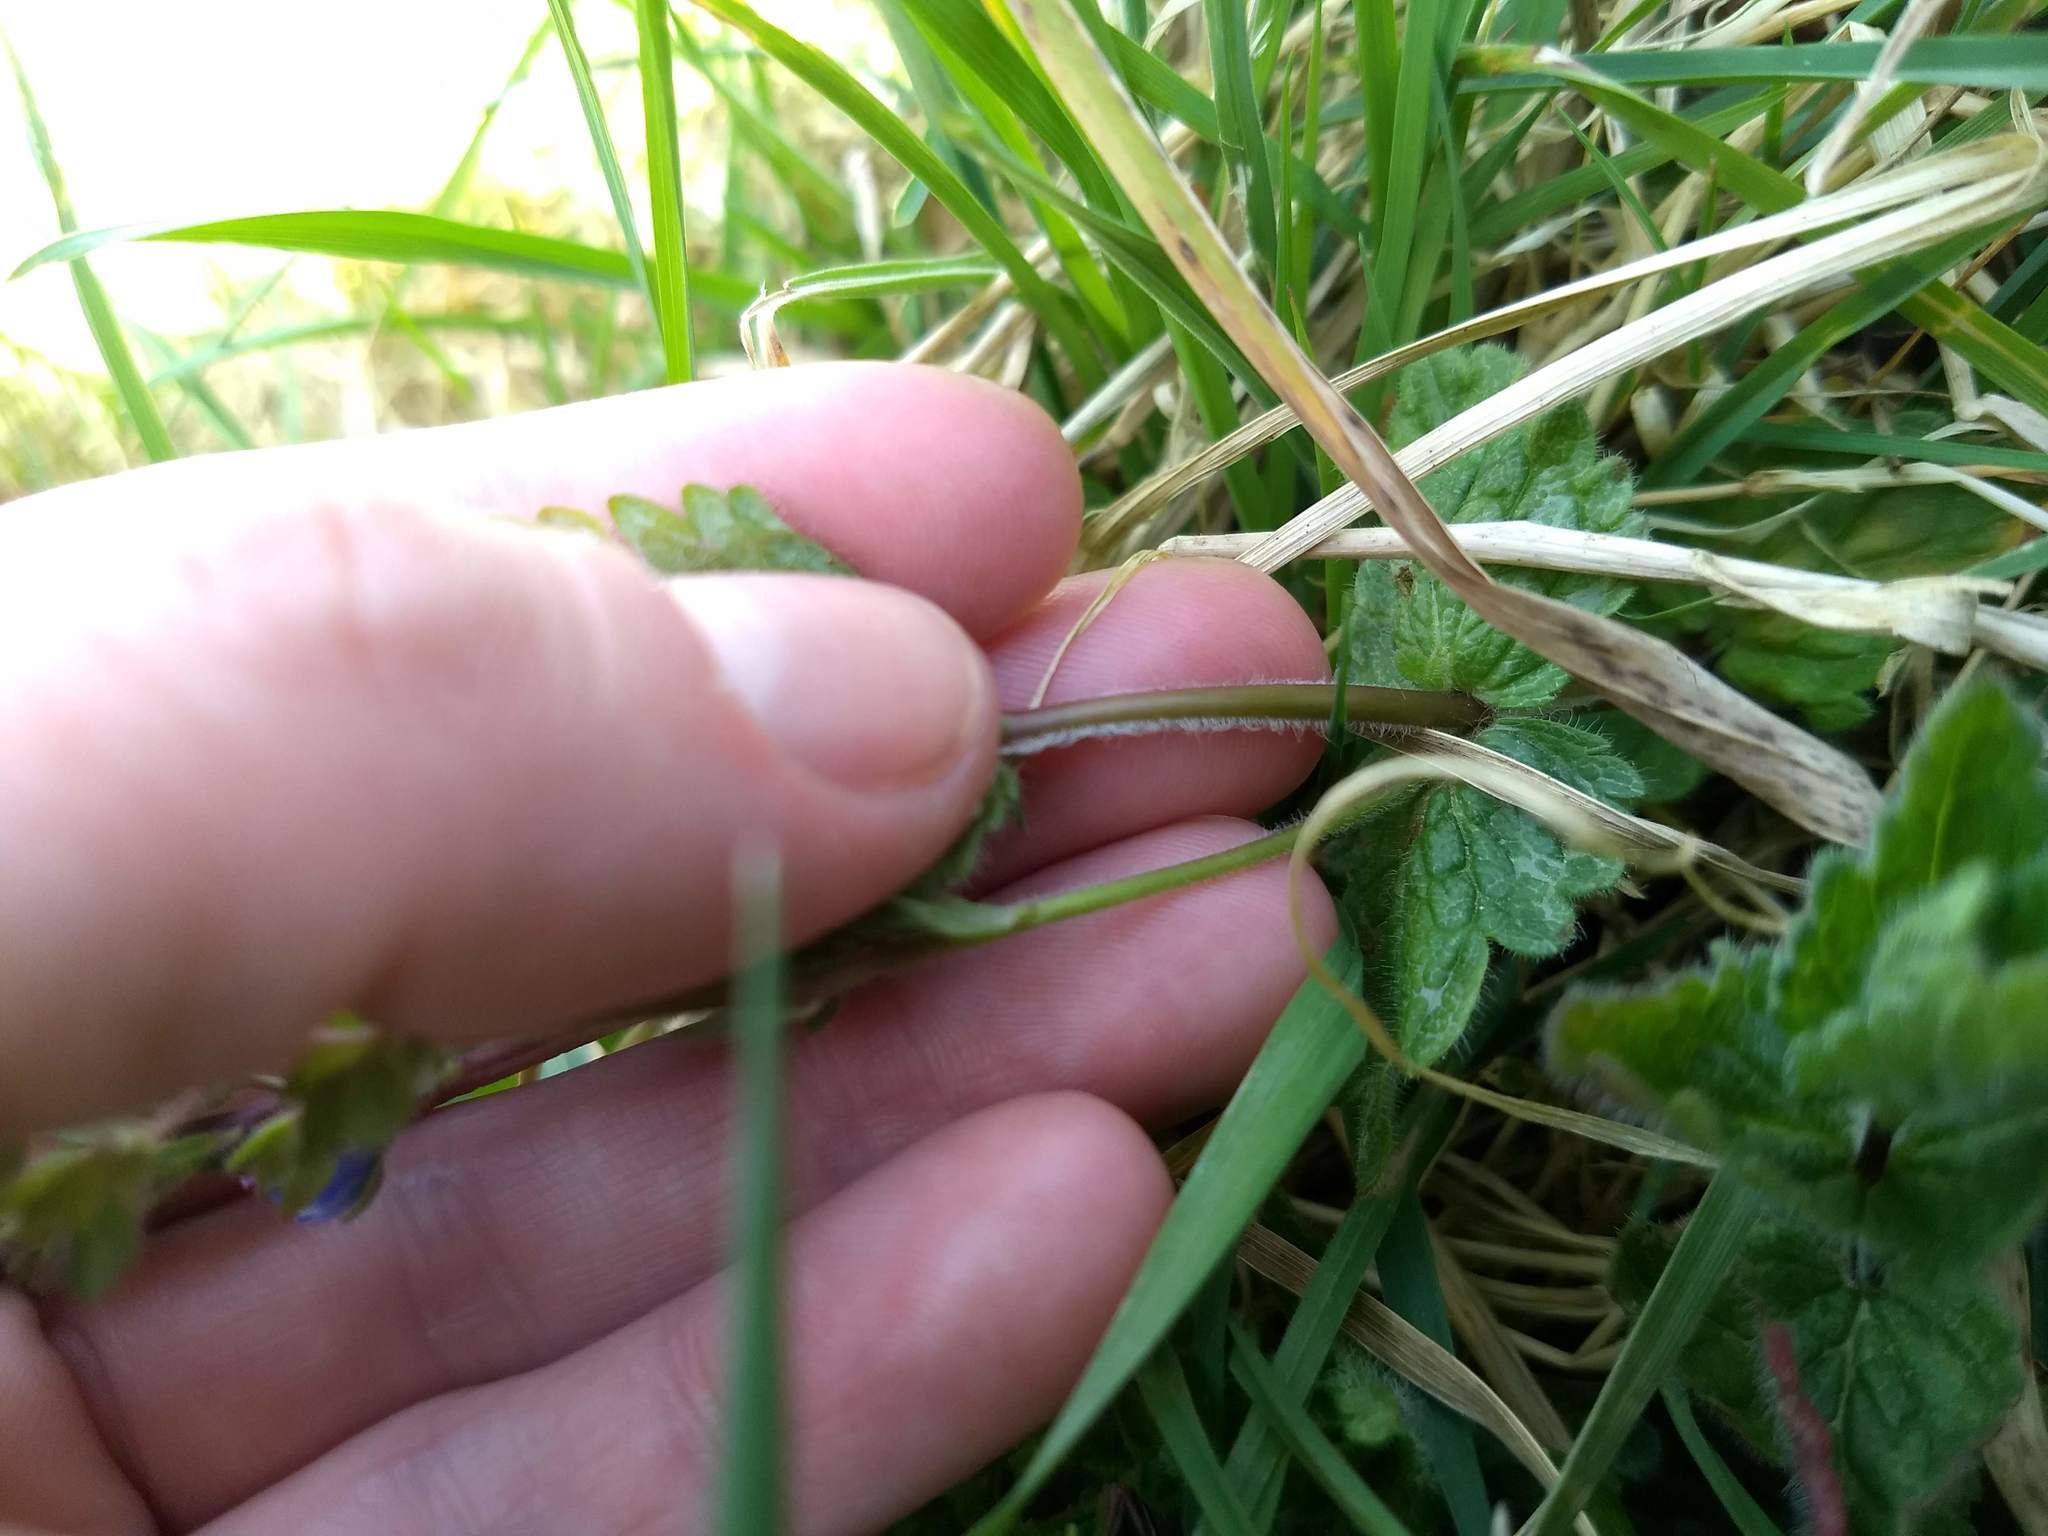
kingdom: Plantae
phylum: Tracheophyta
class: Magnoliopsida
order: Lamiales
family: Plantaginaceae
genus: Veronica
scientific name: Veronica chamaedrys
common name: Germander speedwell
